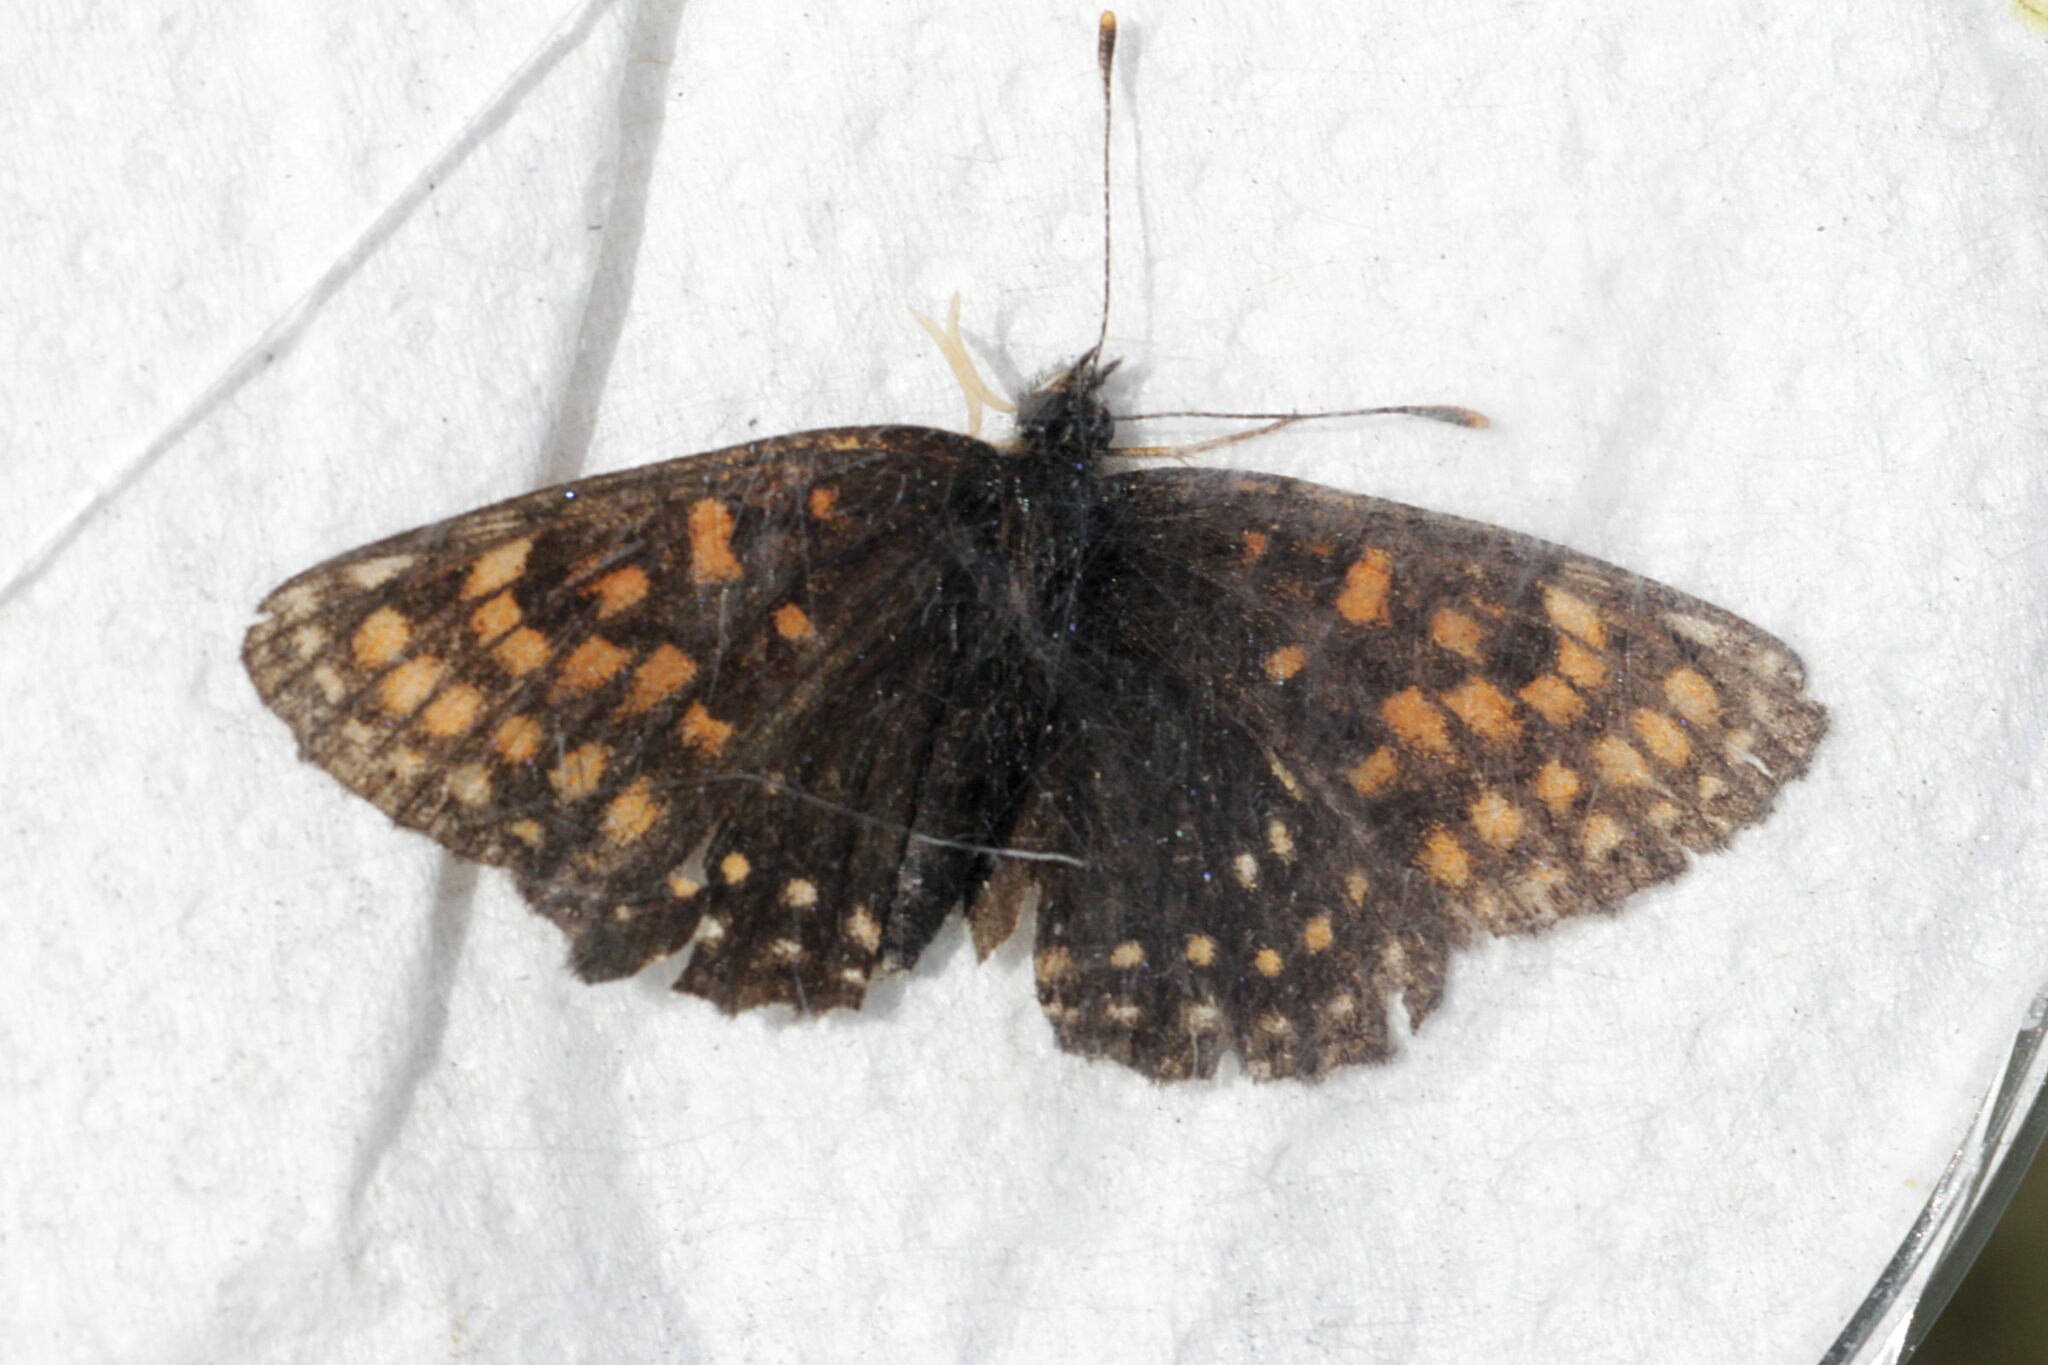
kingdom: Animalia
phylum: Arthropoda
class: Insecta
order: Lepidoptera
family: Nymphalidae
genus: Melitaea
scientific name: Melitaea diamina
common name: False heath fritillary
